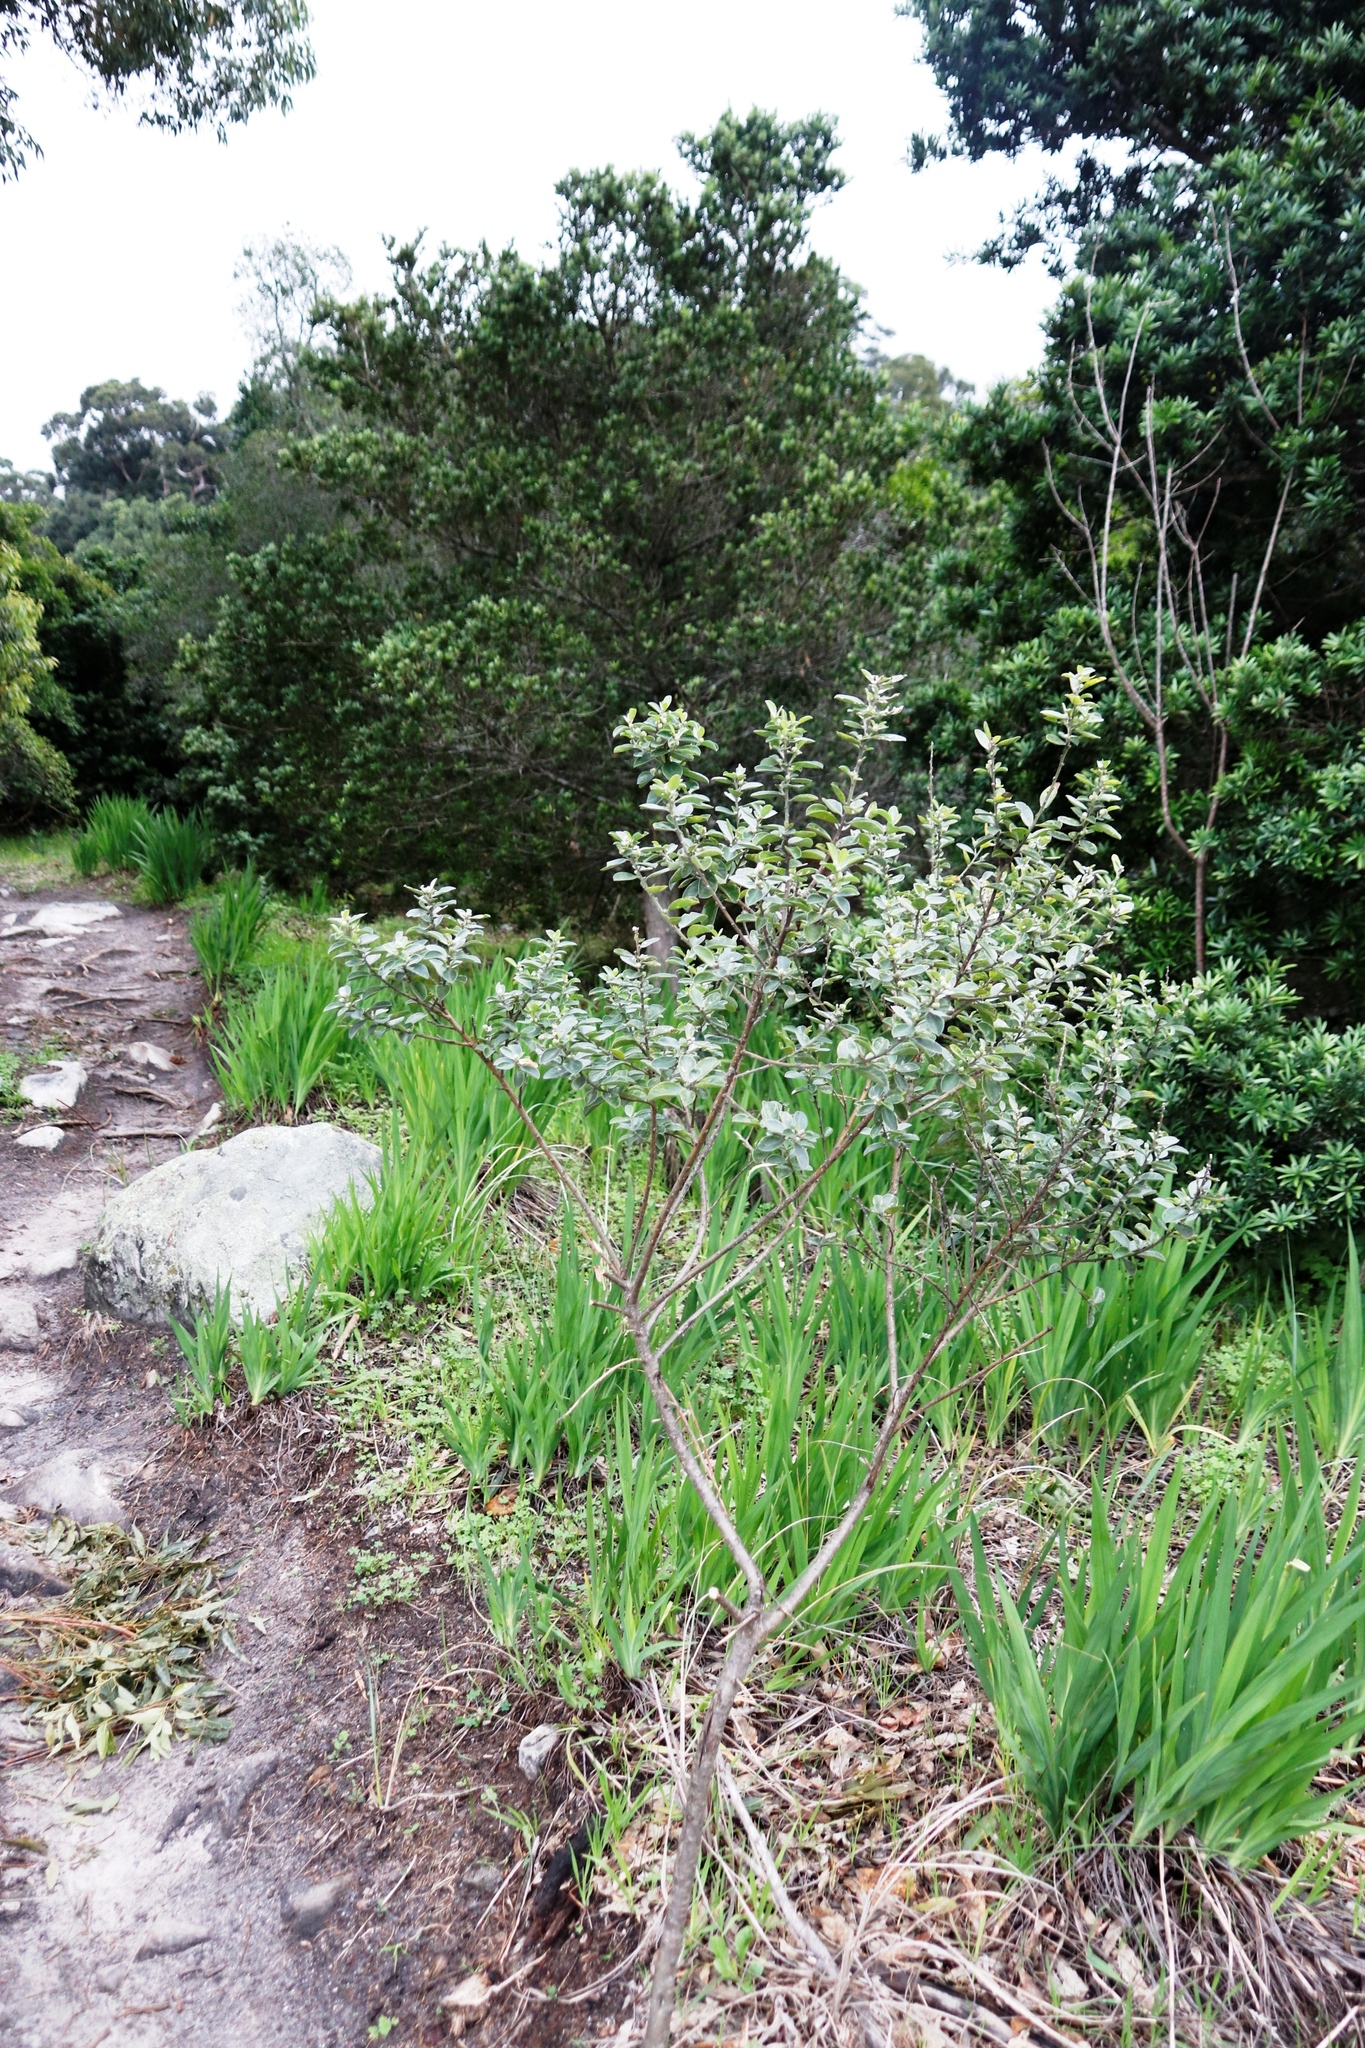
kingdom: Plantae
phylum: Tracheophyta
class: Magnoliopsida
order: Fabales
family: Fabaceae
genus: Podalyria
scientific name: Podalyria calyptrata
